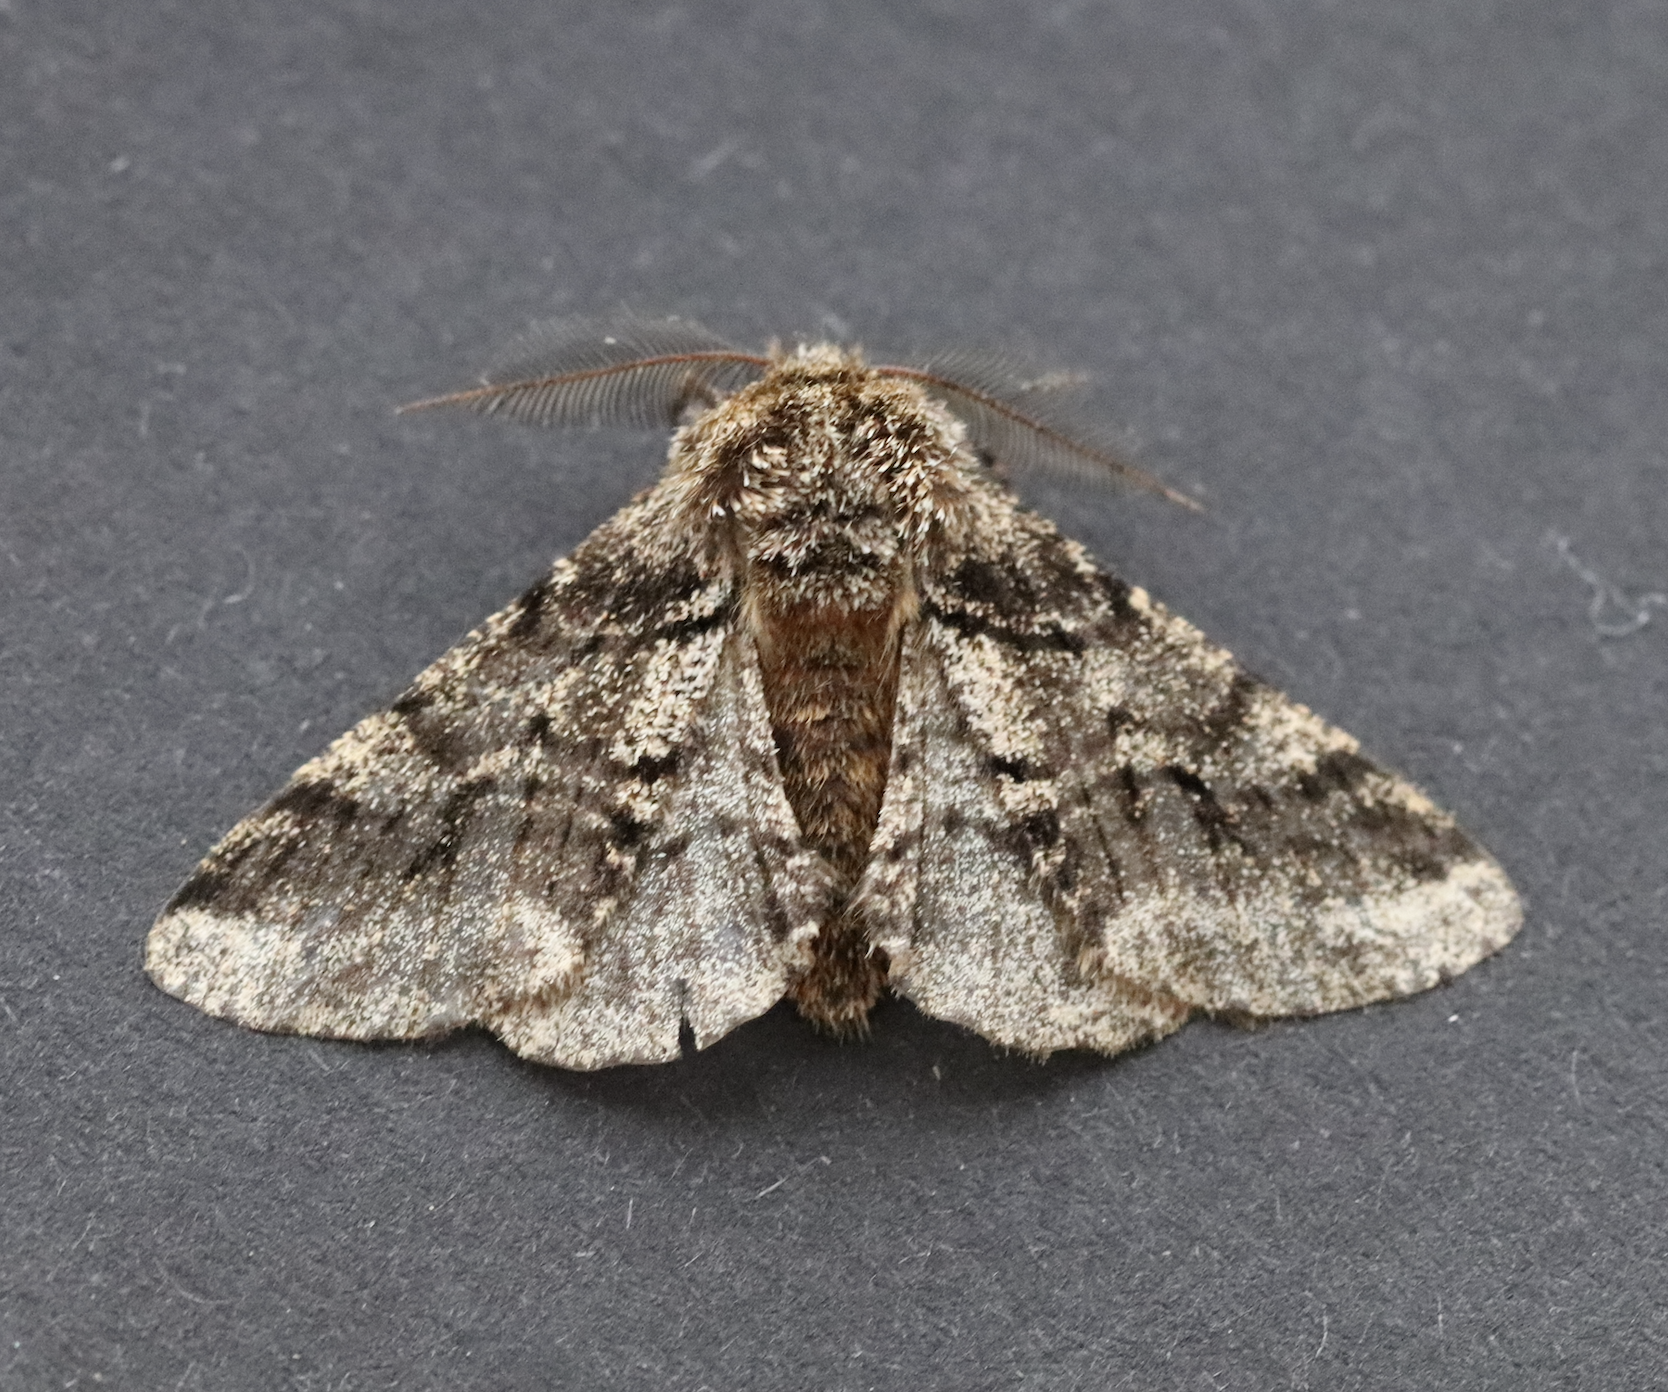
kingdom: Animalia
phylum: Arthropoda
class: Insecta
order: Lepidoptera
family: Geometridae
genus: Lycia
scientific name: Lycia hirtaria
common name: Brindled beauty
